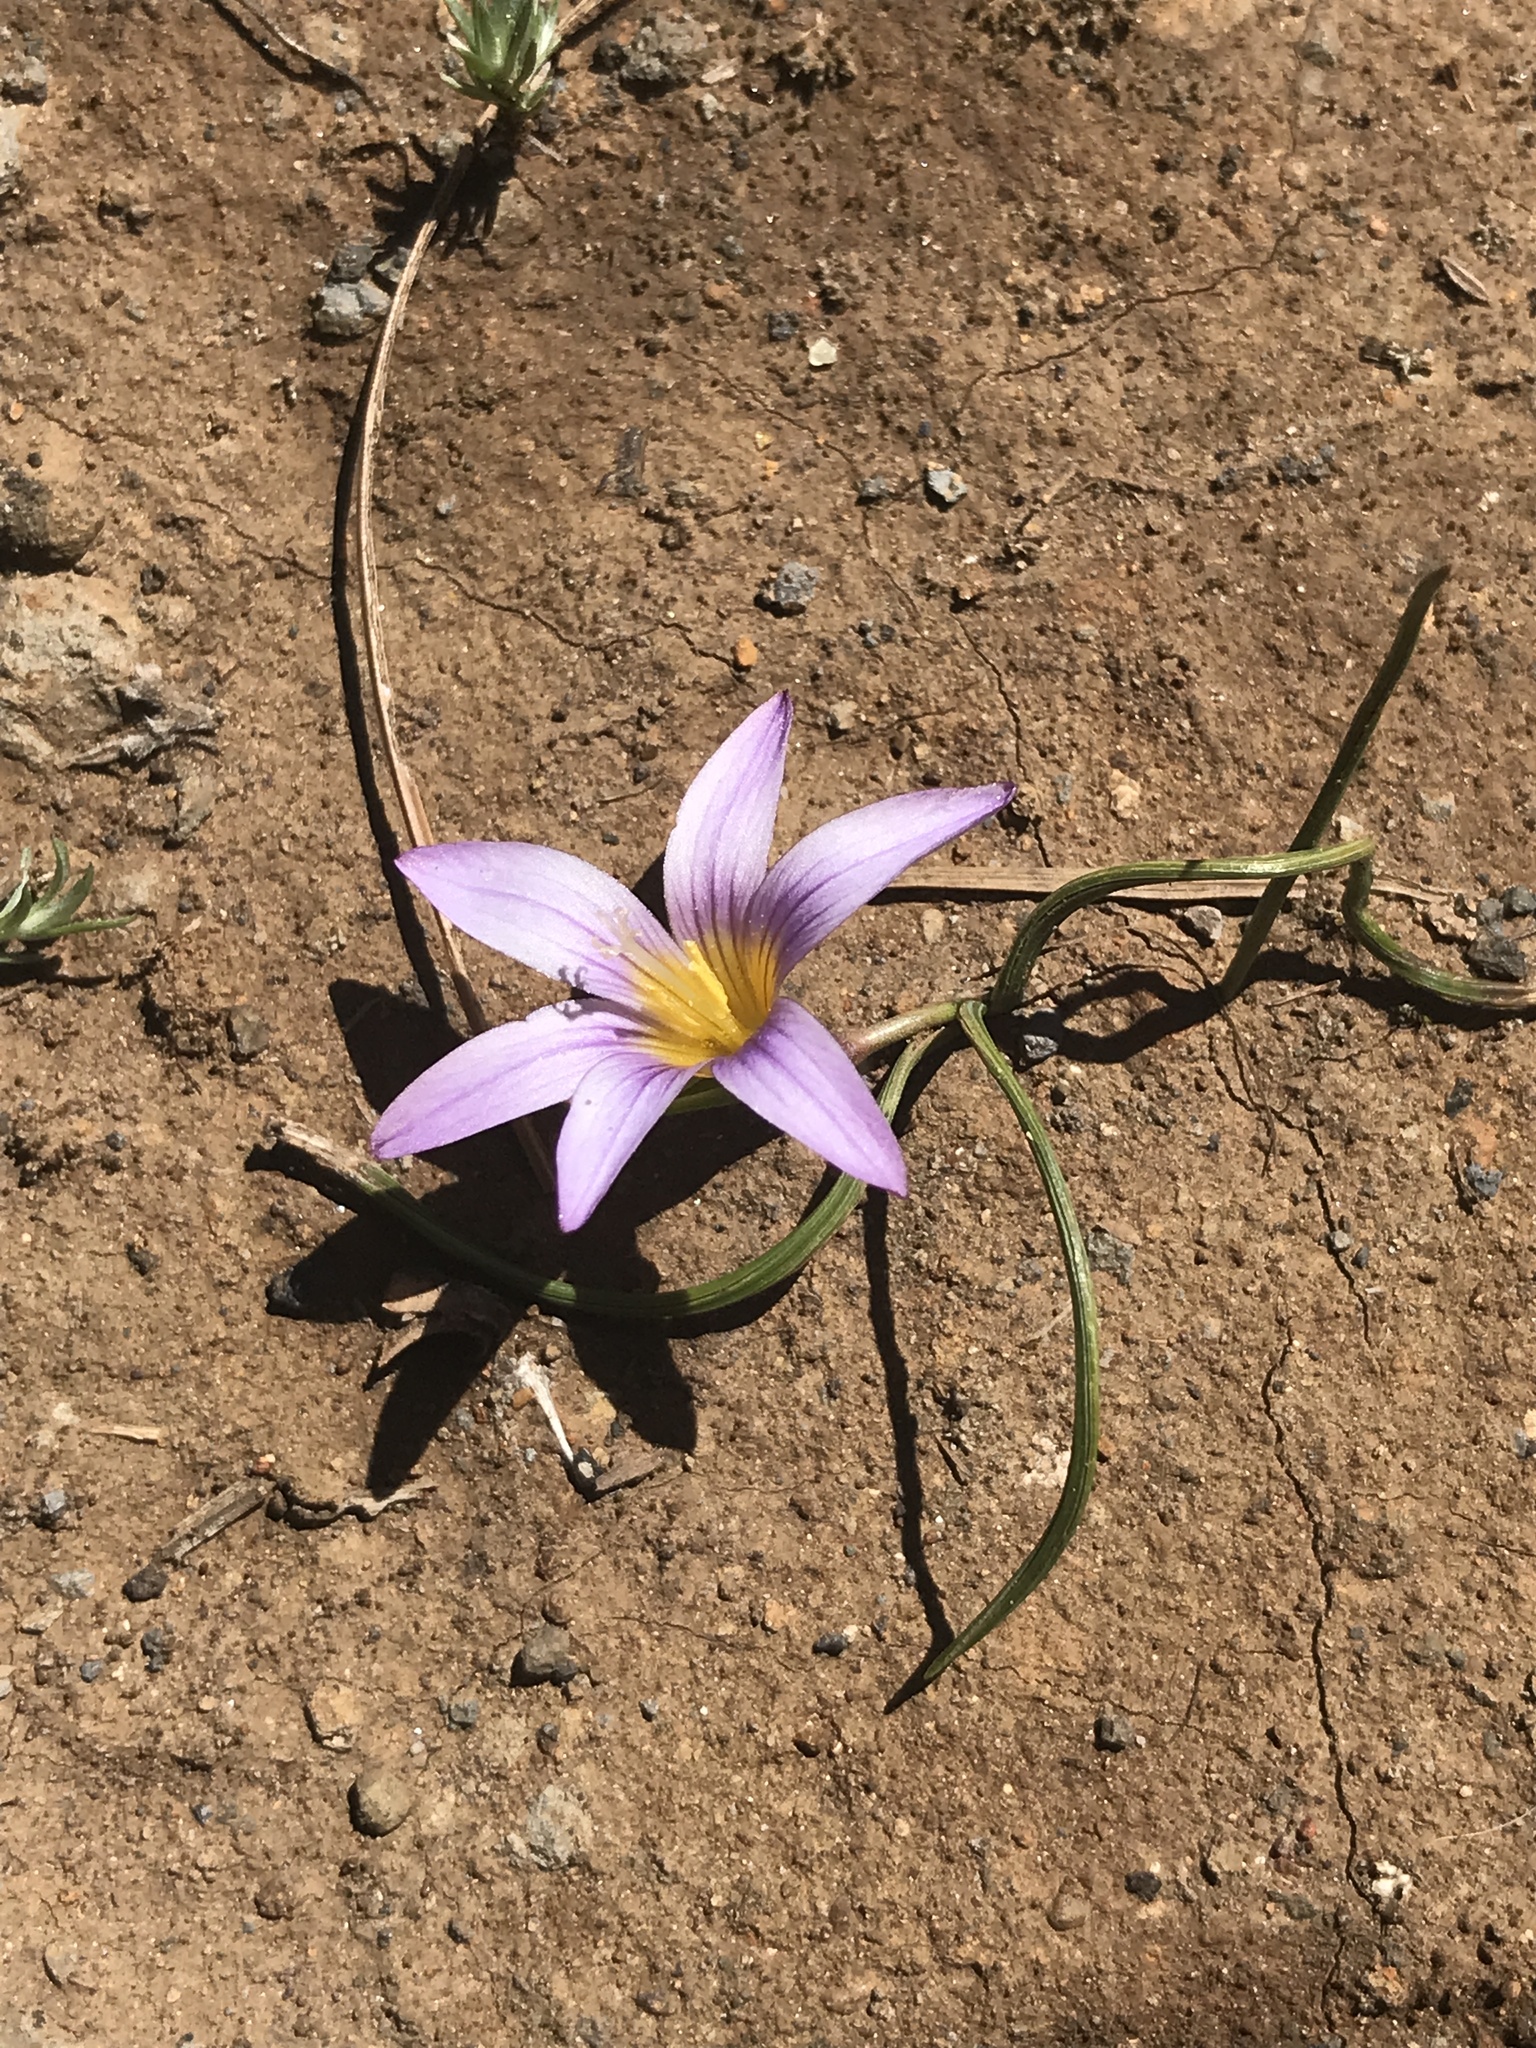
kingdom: Plantae
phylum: Tracheophyta
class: Liliopsida
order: Asparagales
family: Iridaceae
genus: Romulea
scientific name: Romulea columnae
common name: Sand-crocus
